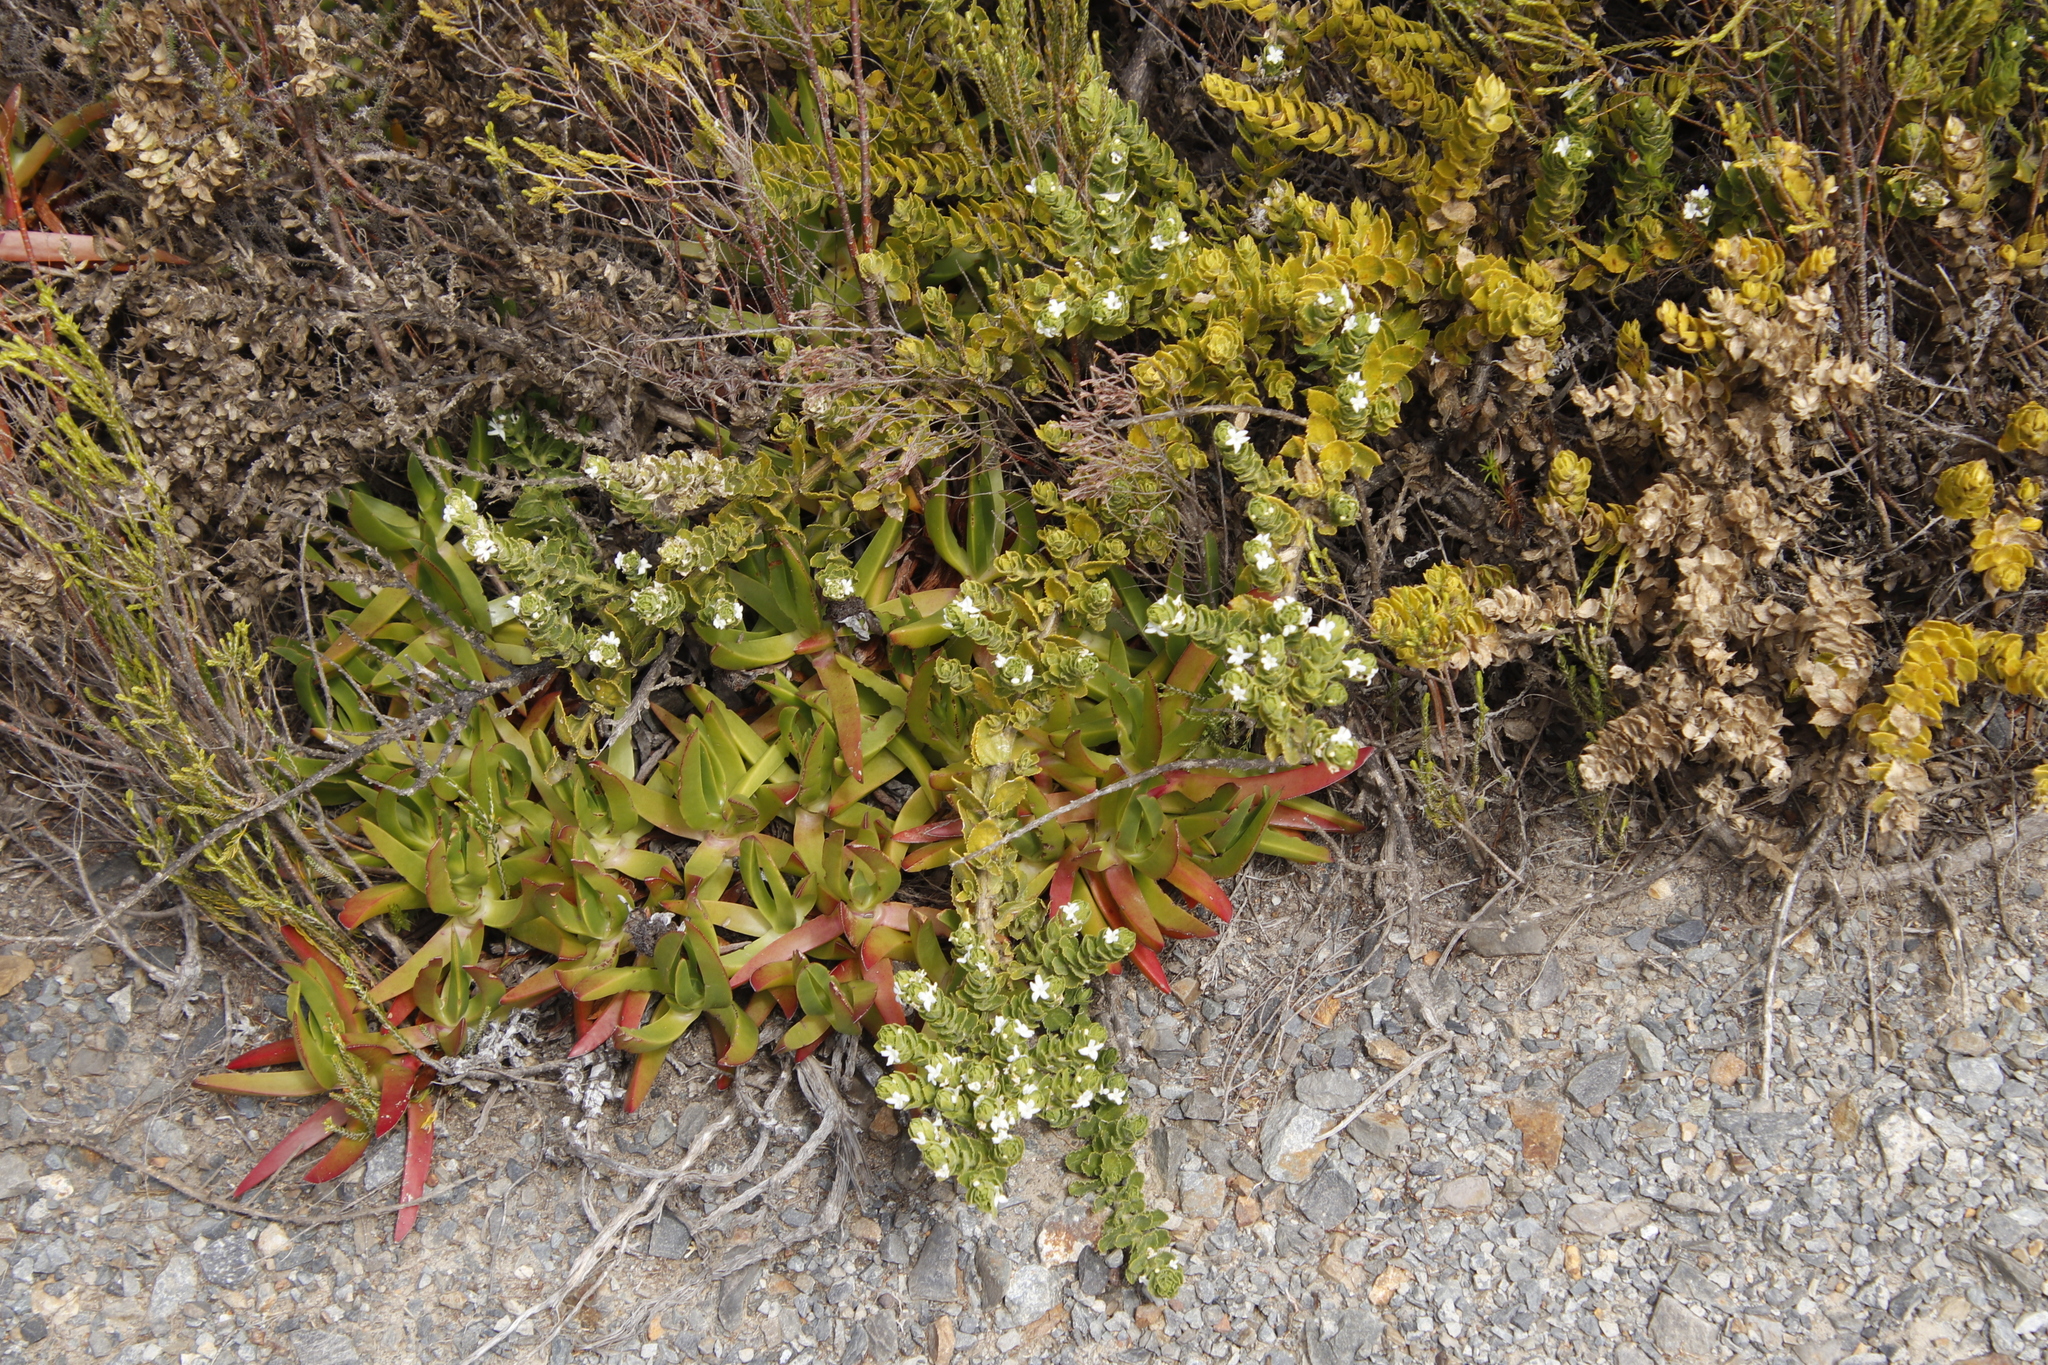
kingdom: Plantae
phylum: Tracheophyta
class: Magnoliopsida
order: Lamiales
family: Scrophulariaceae
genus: Oftia
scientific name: Oftia africana
